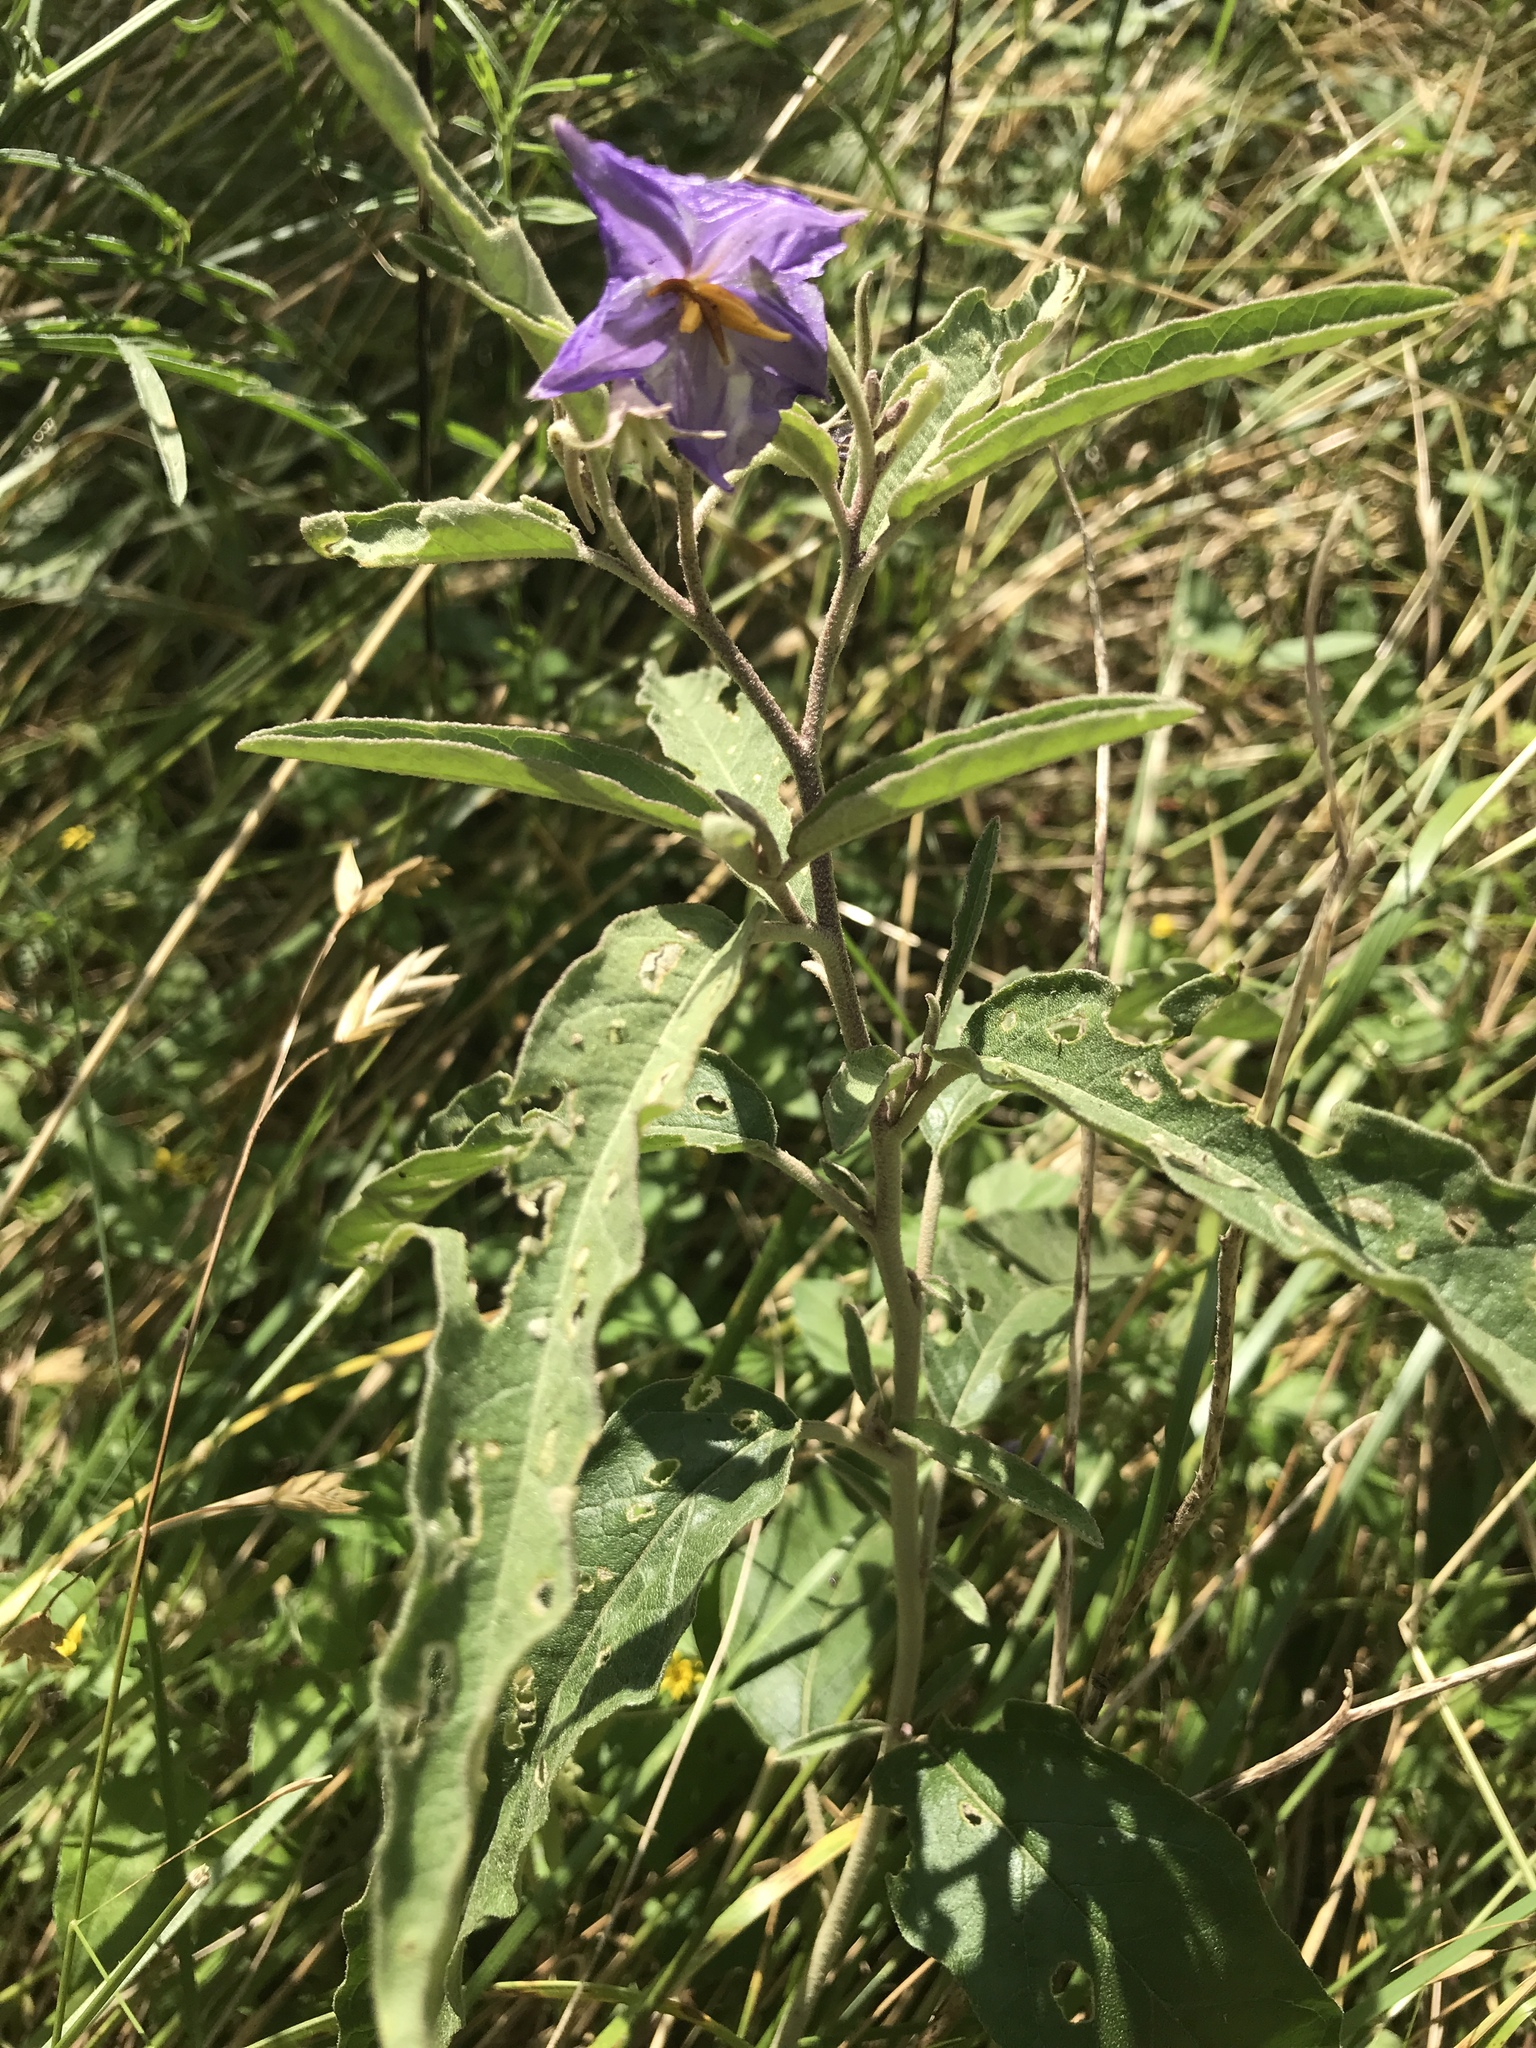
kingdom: Plantae
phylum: Tracheophyta
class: Magnoliopsida
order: Solanales
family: Solanaceae
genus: Solanum
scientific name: Solanum elaeagnifolium
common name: Silverleaf nightshade
